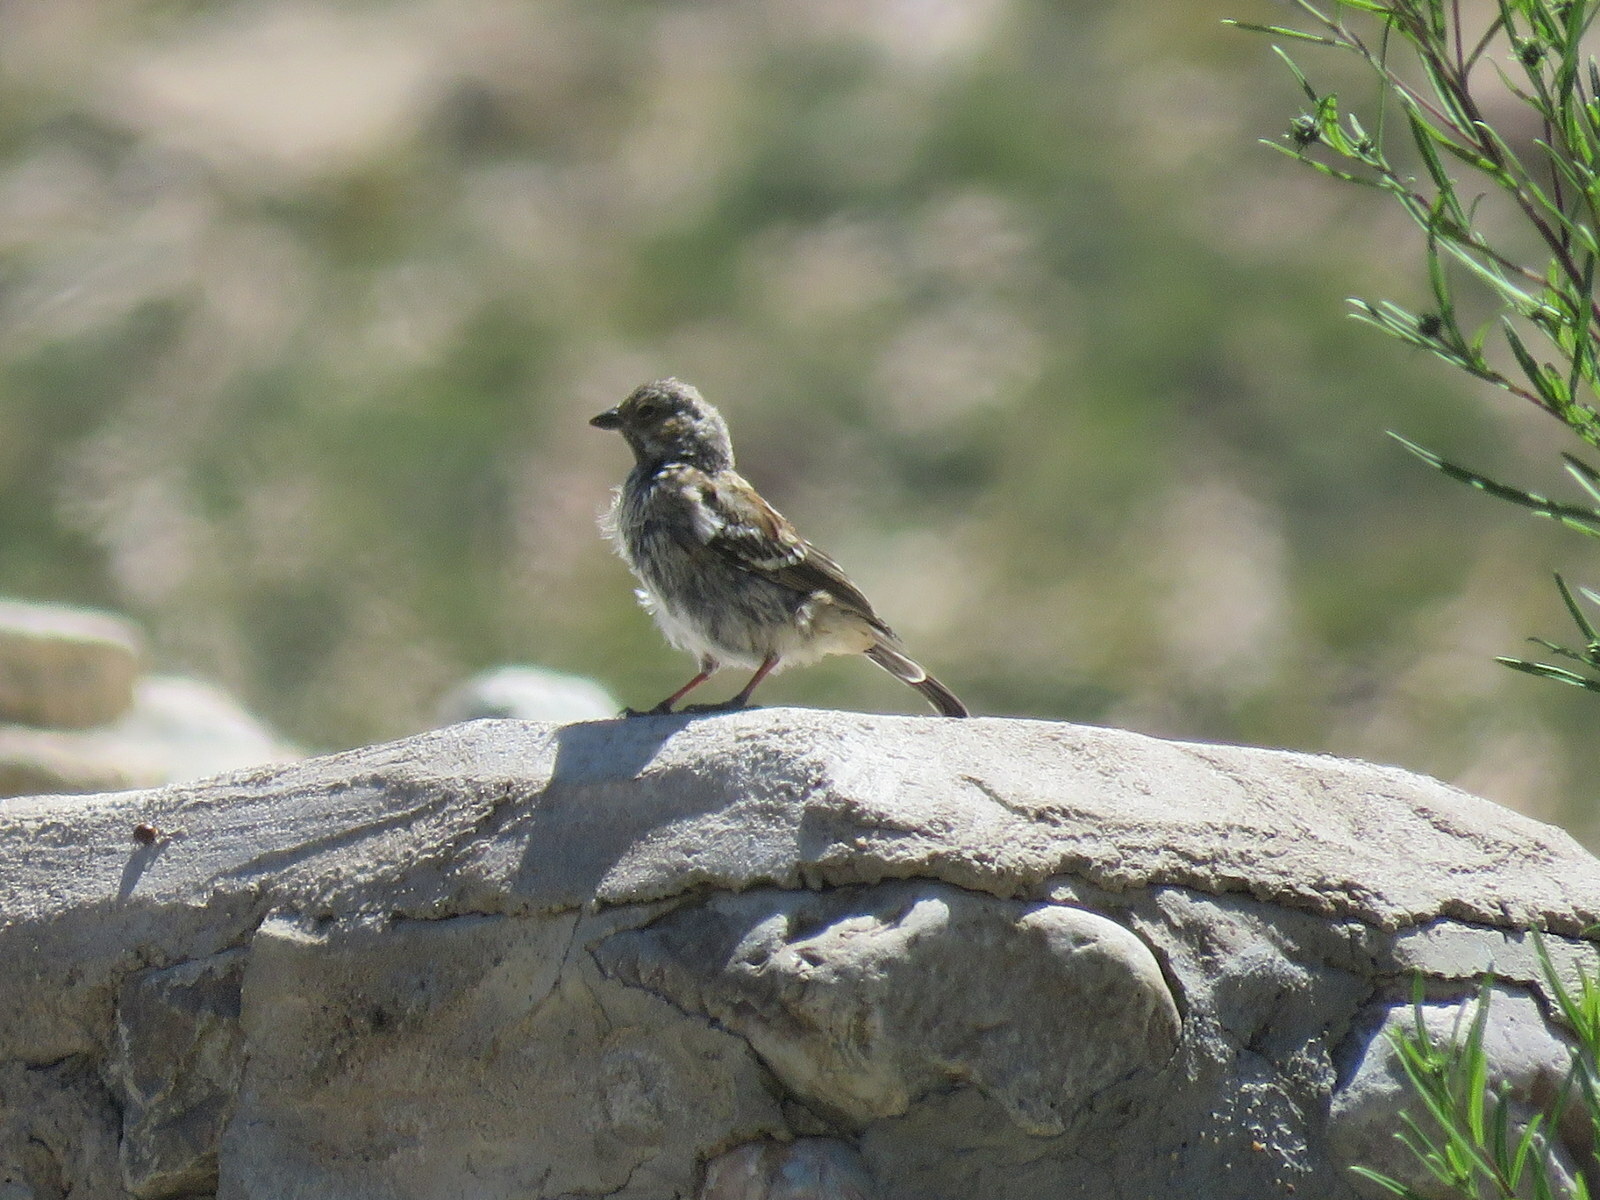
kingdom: Animalia
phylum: Chordata
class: Aves
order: Passeriformes
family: Thraupidae
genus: Rhopospina
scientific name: Rhopospina fruticeti
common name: Mourning sierra finch
